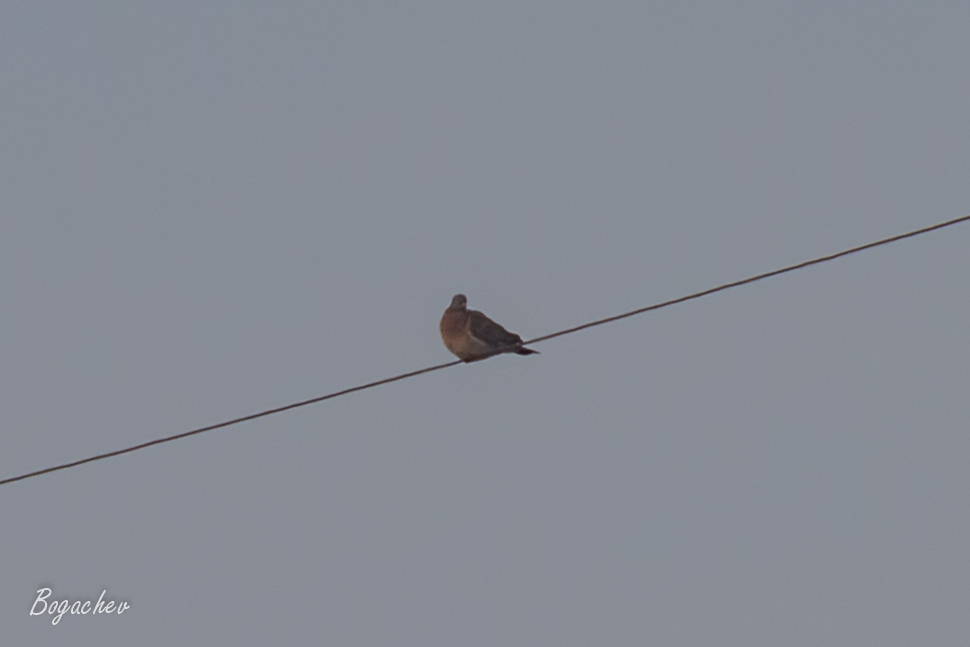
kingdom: Animalia
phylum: Chordata
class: Aves
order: Columbiformes
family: Columbidae
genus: Columba
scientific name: Columba palumbus
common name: Common wood pigeon
